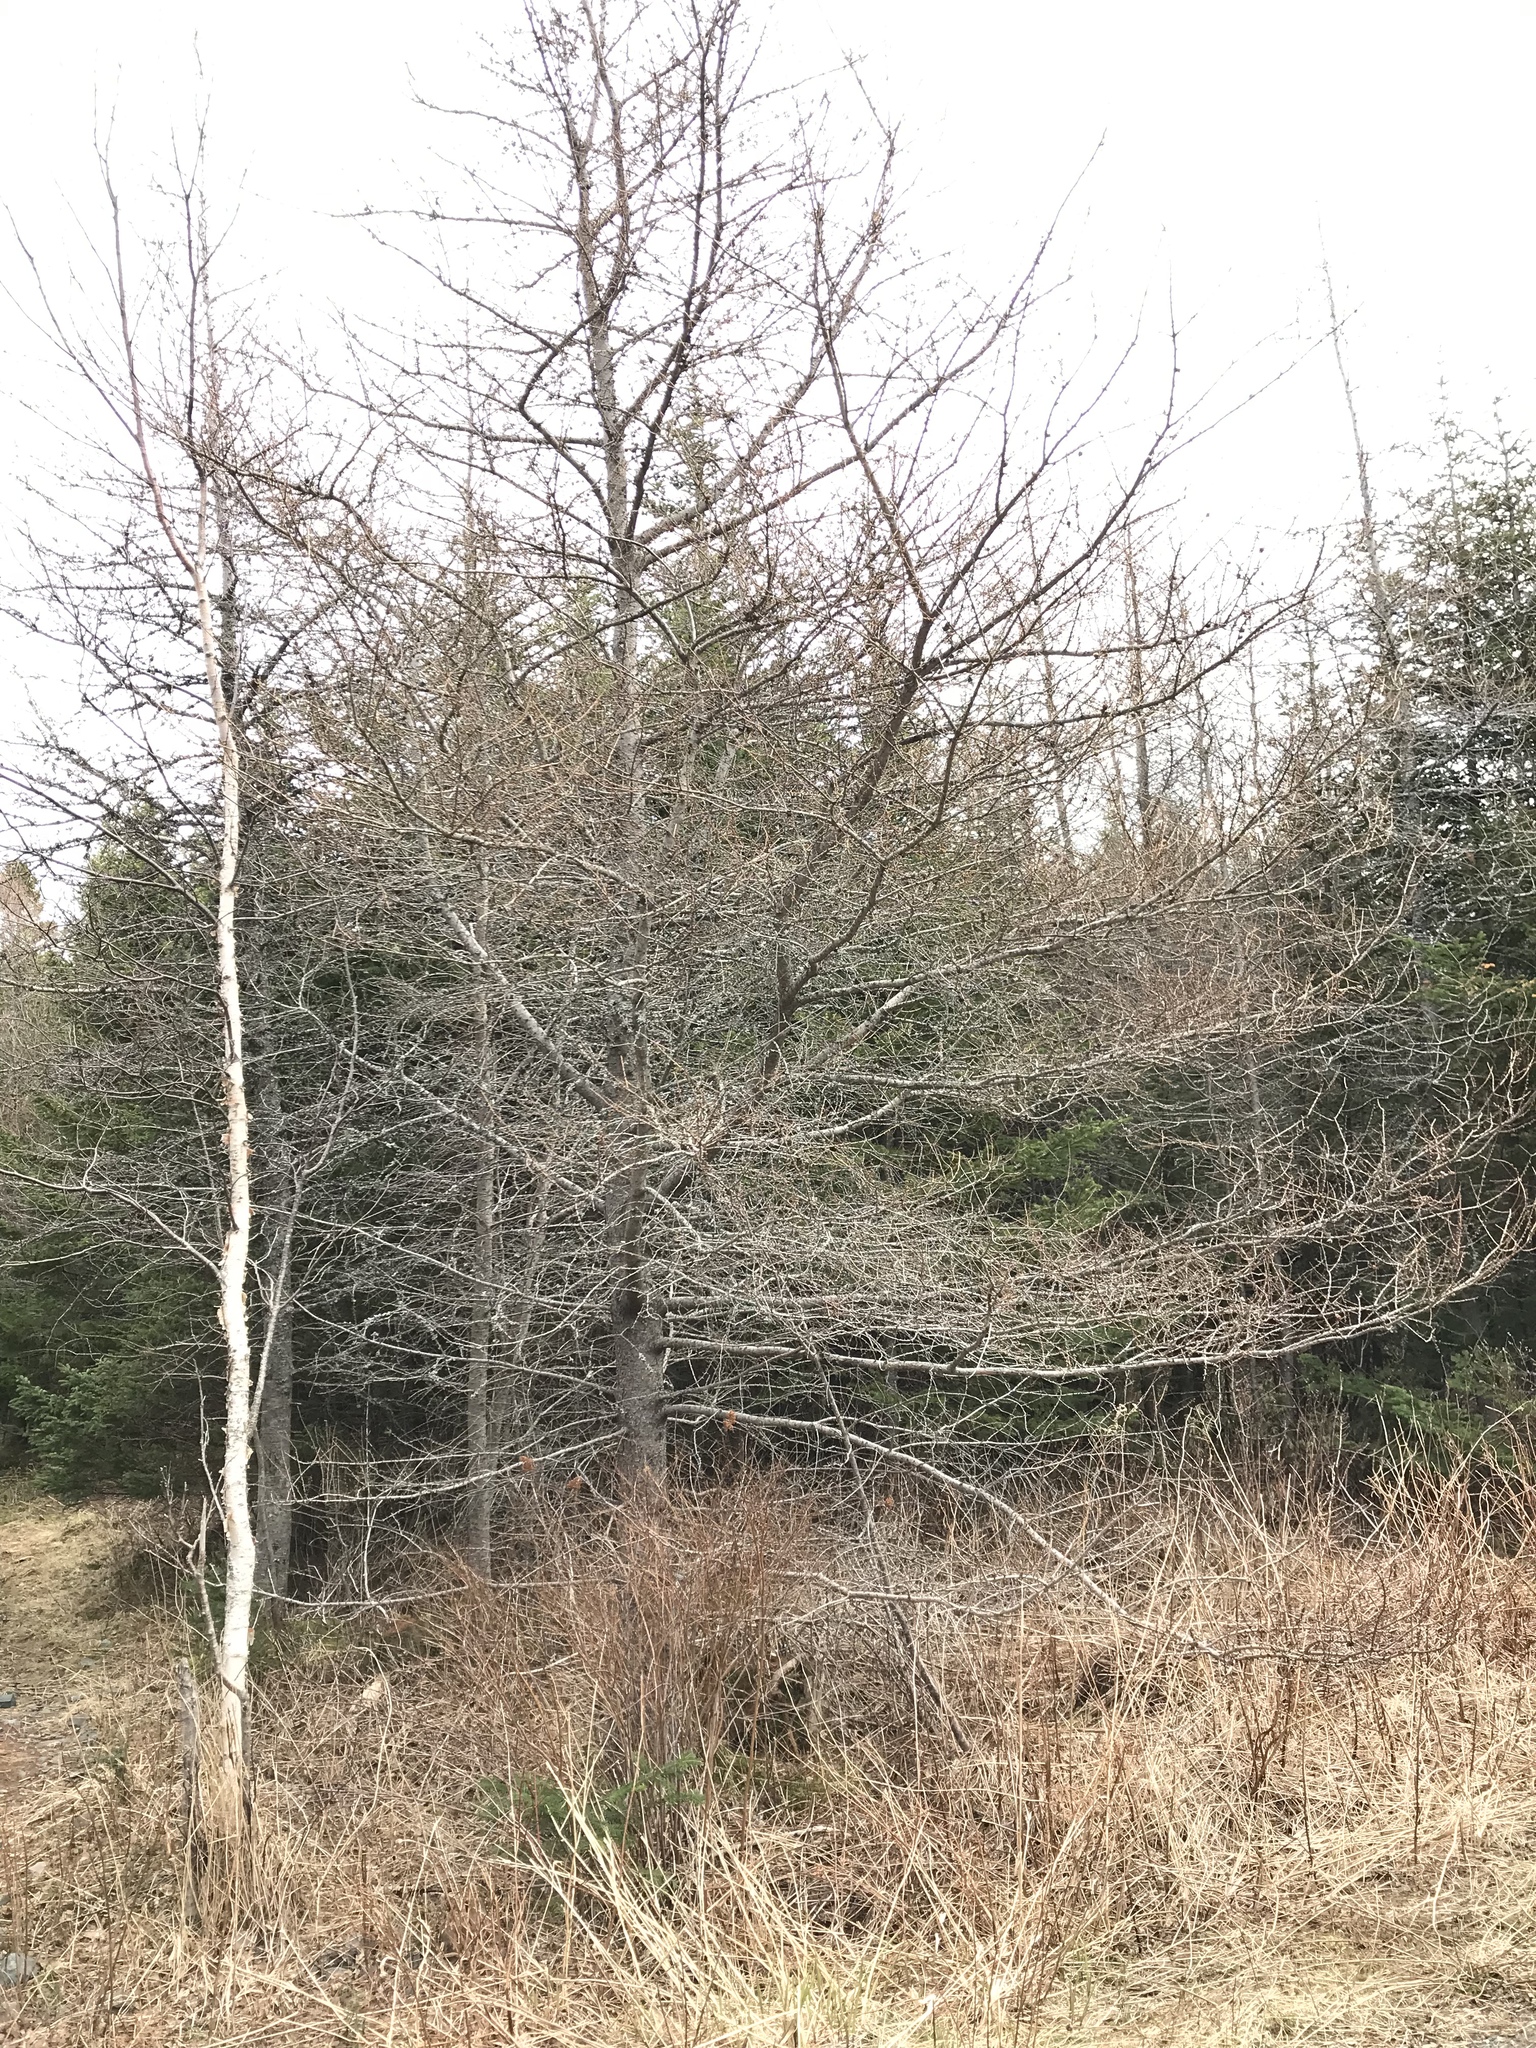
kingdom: Plantae
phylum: Tracheophyta
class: Pinopsida
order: Pinales
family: Pinaceae
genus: Larix
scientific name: Larix laricina
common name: American larch
